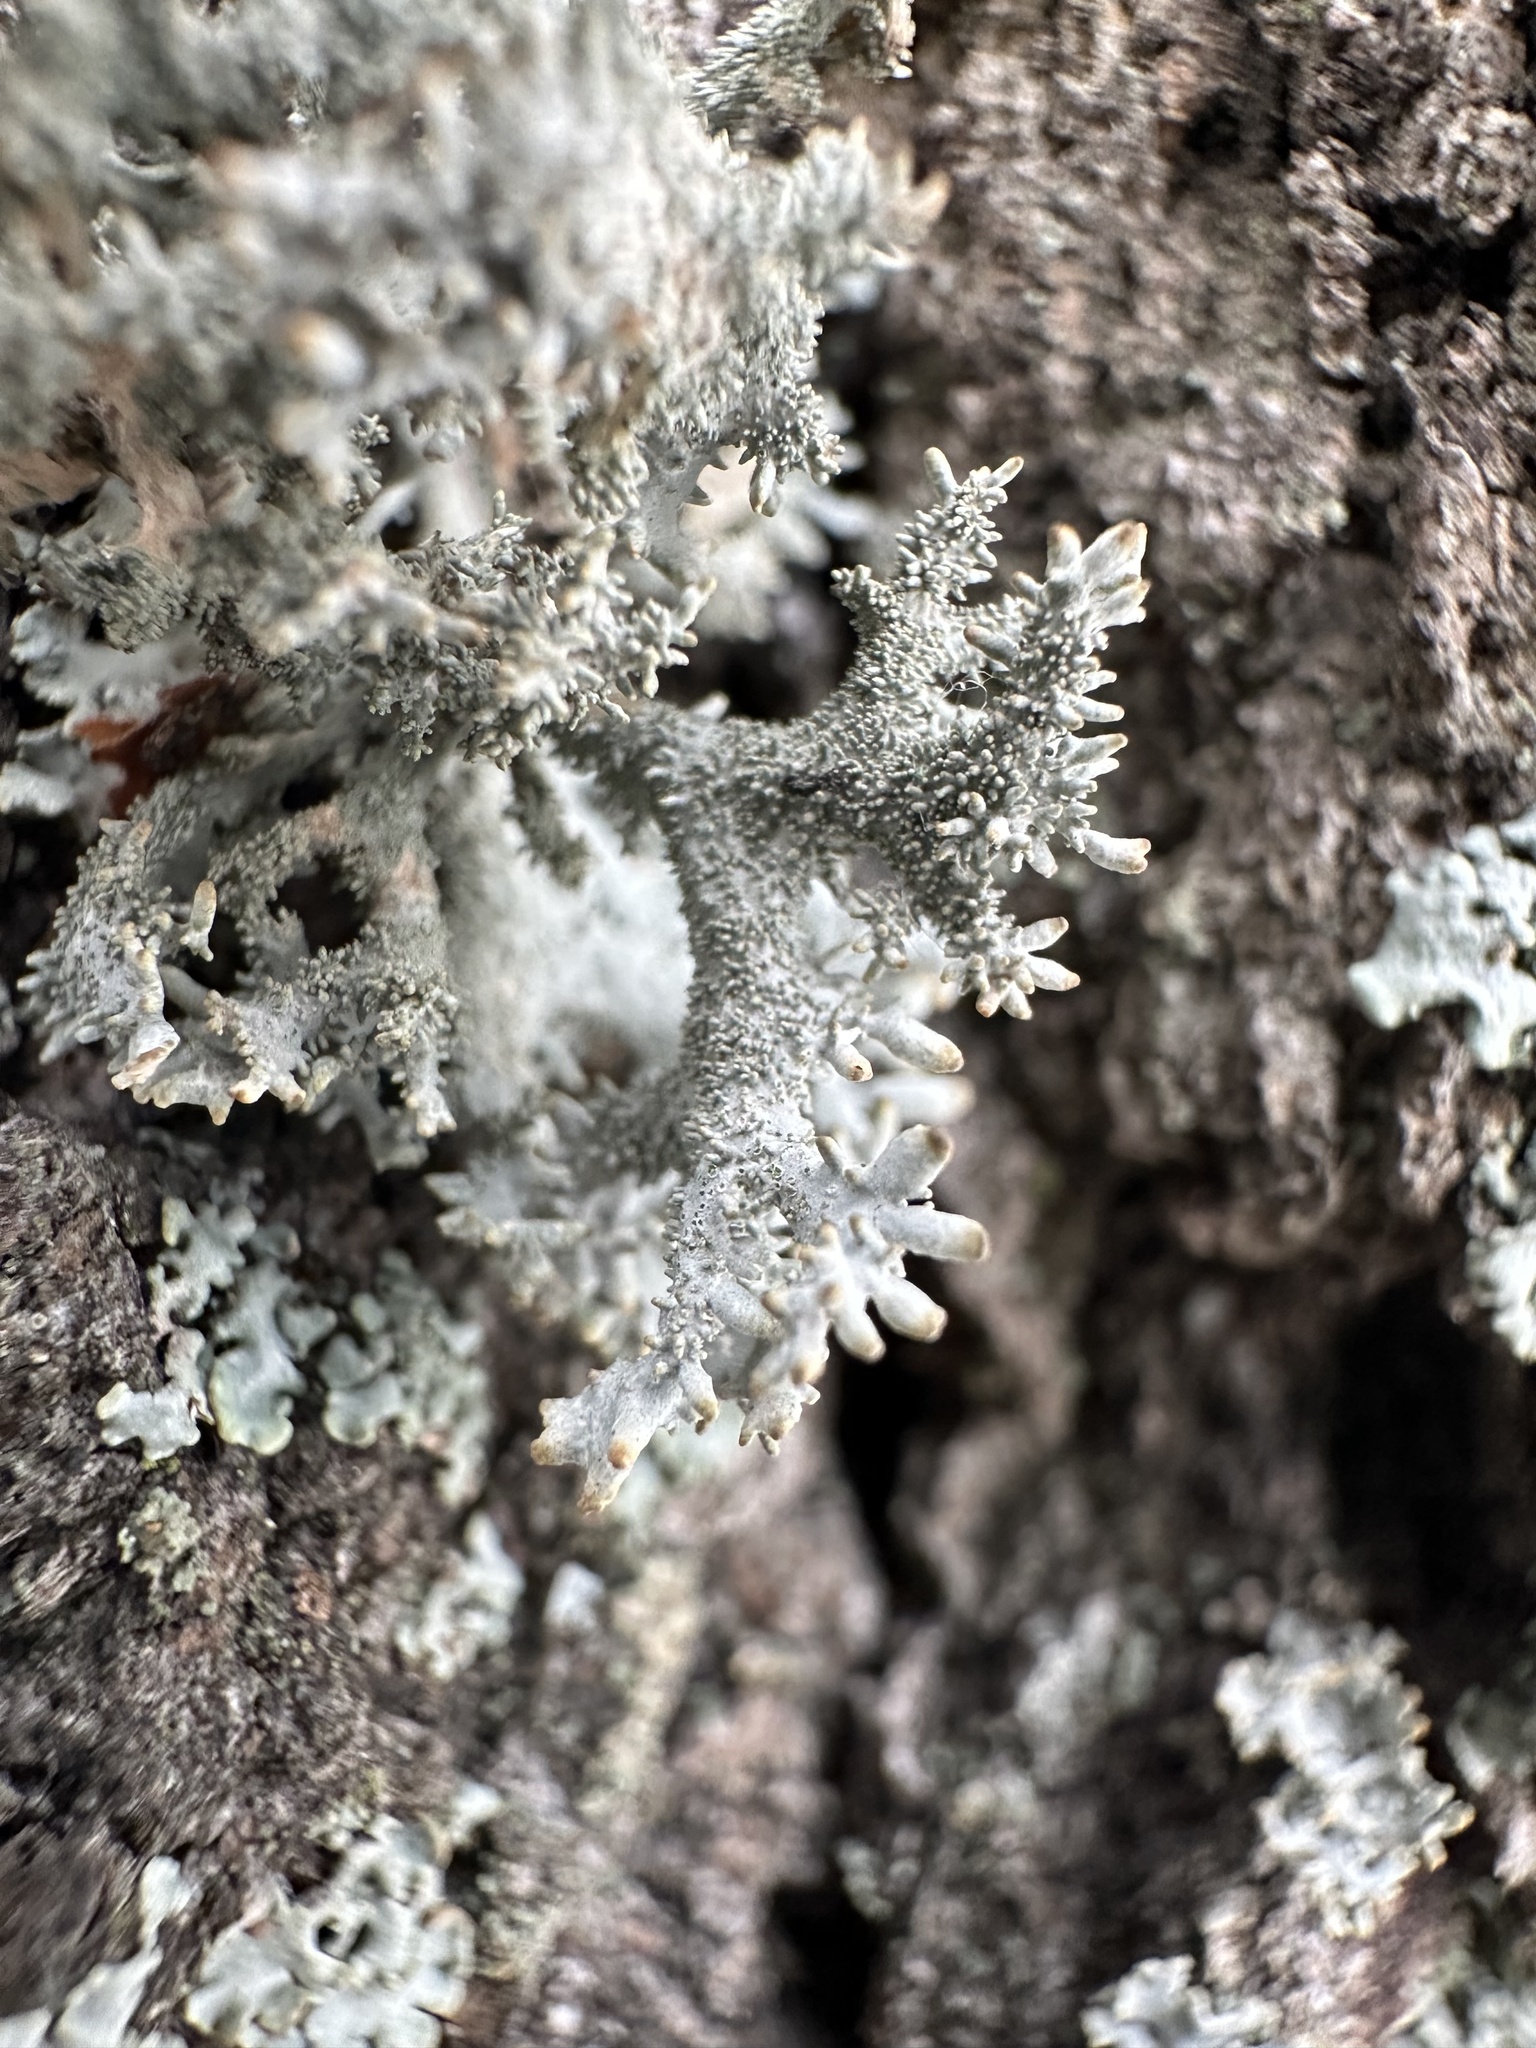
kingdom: Fungi
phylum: Ascomycota
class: Lecanoromycetes
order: Lecanorales
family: Parmeliaceae
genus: Pseudevernia
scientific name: Pseudevernia furfuracea
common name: Tree moss
